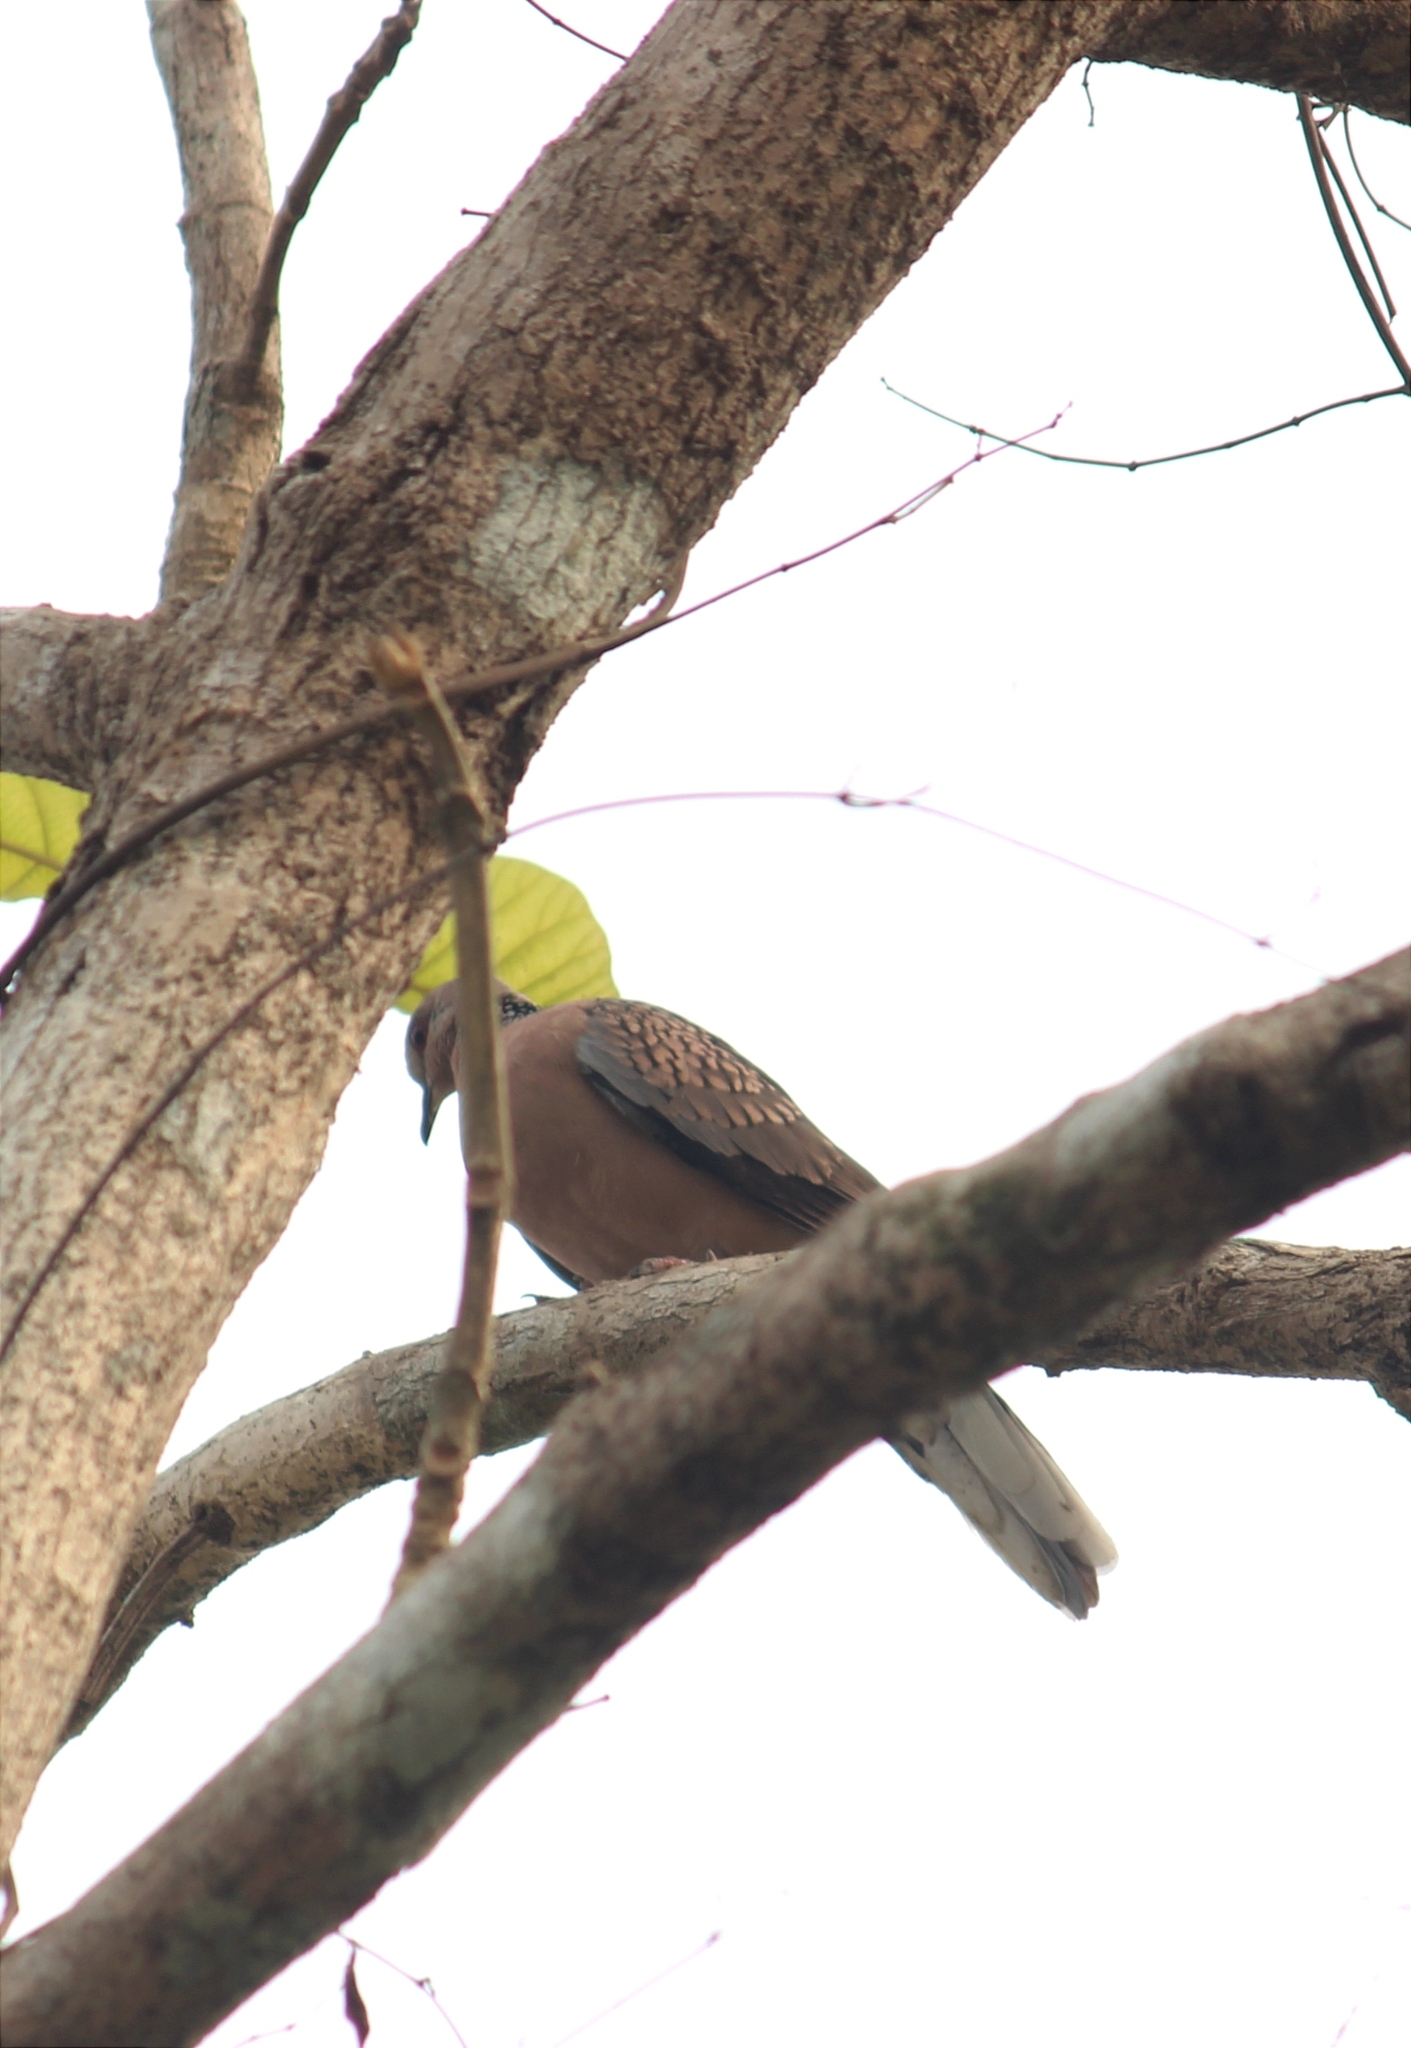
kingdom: Animalia
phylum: Chordata
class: Aves
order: Columbiformes
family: Columbidae
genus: Spilopelia
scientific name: Spilopelia chinensis
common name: Spotted dove
